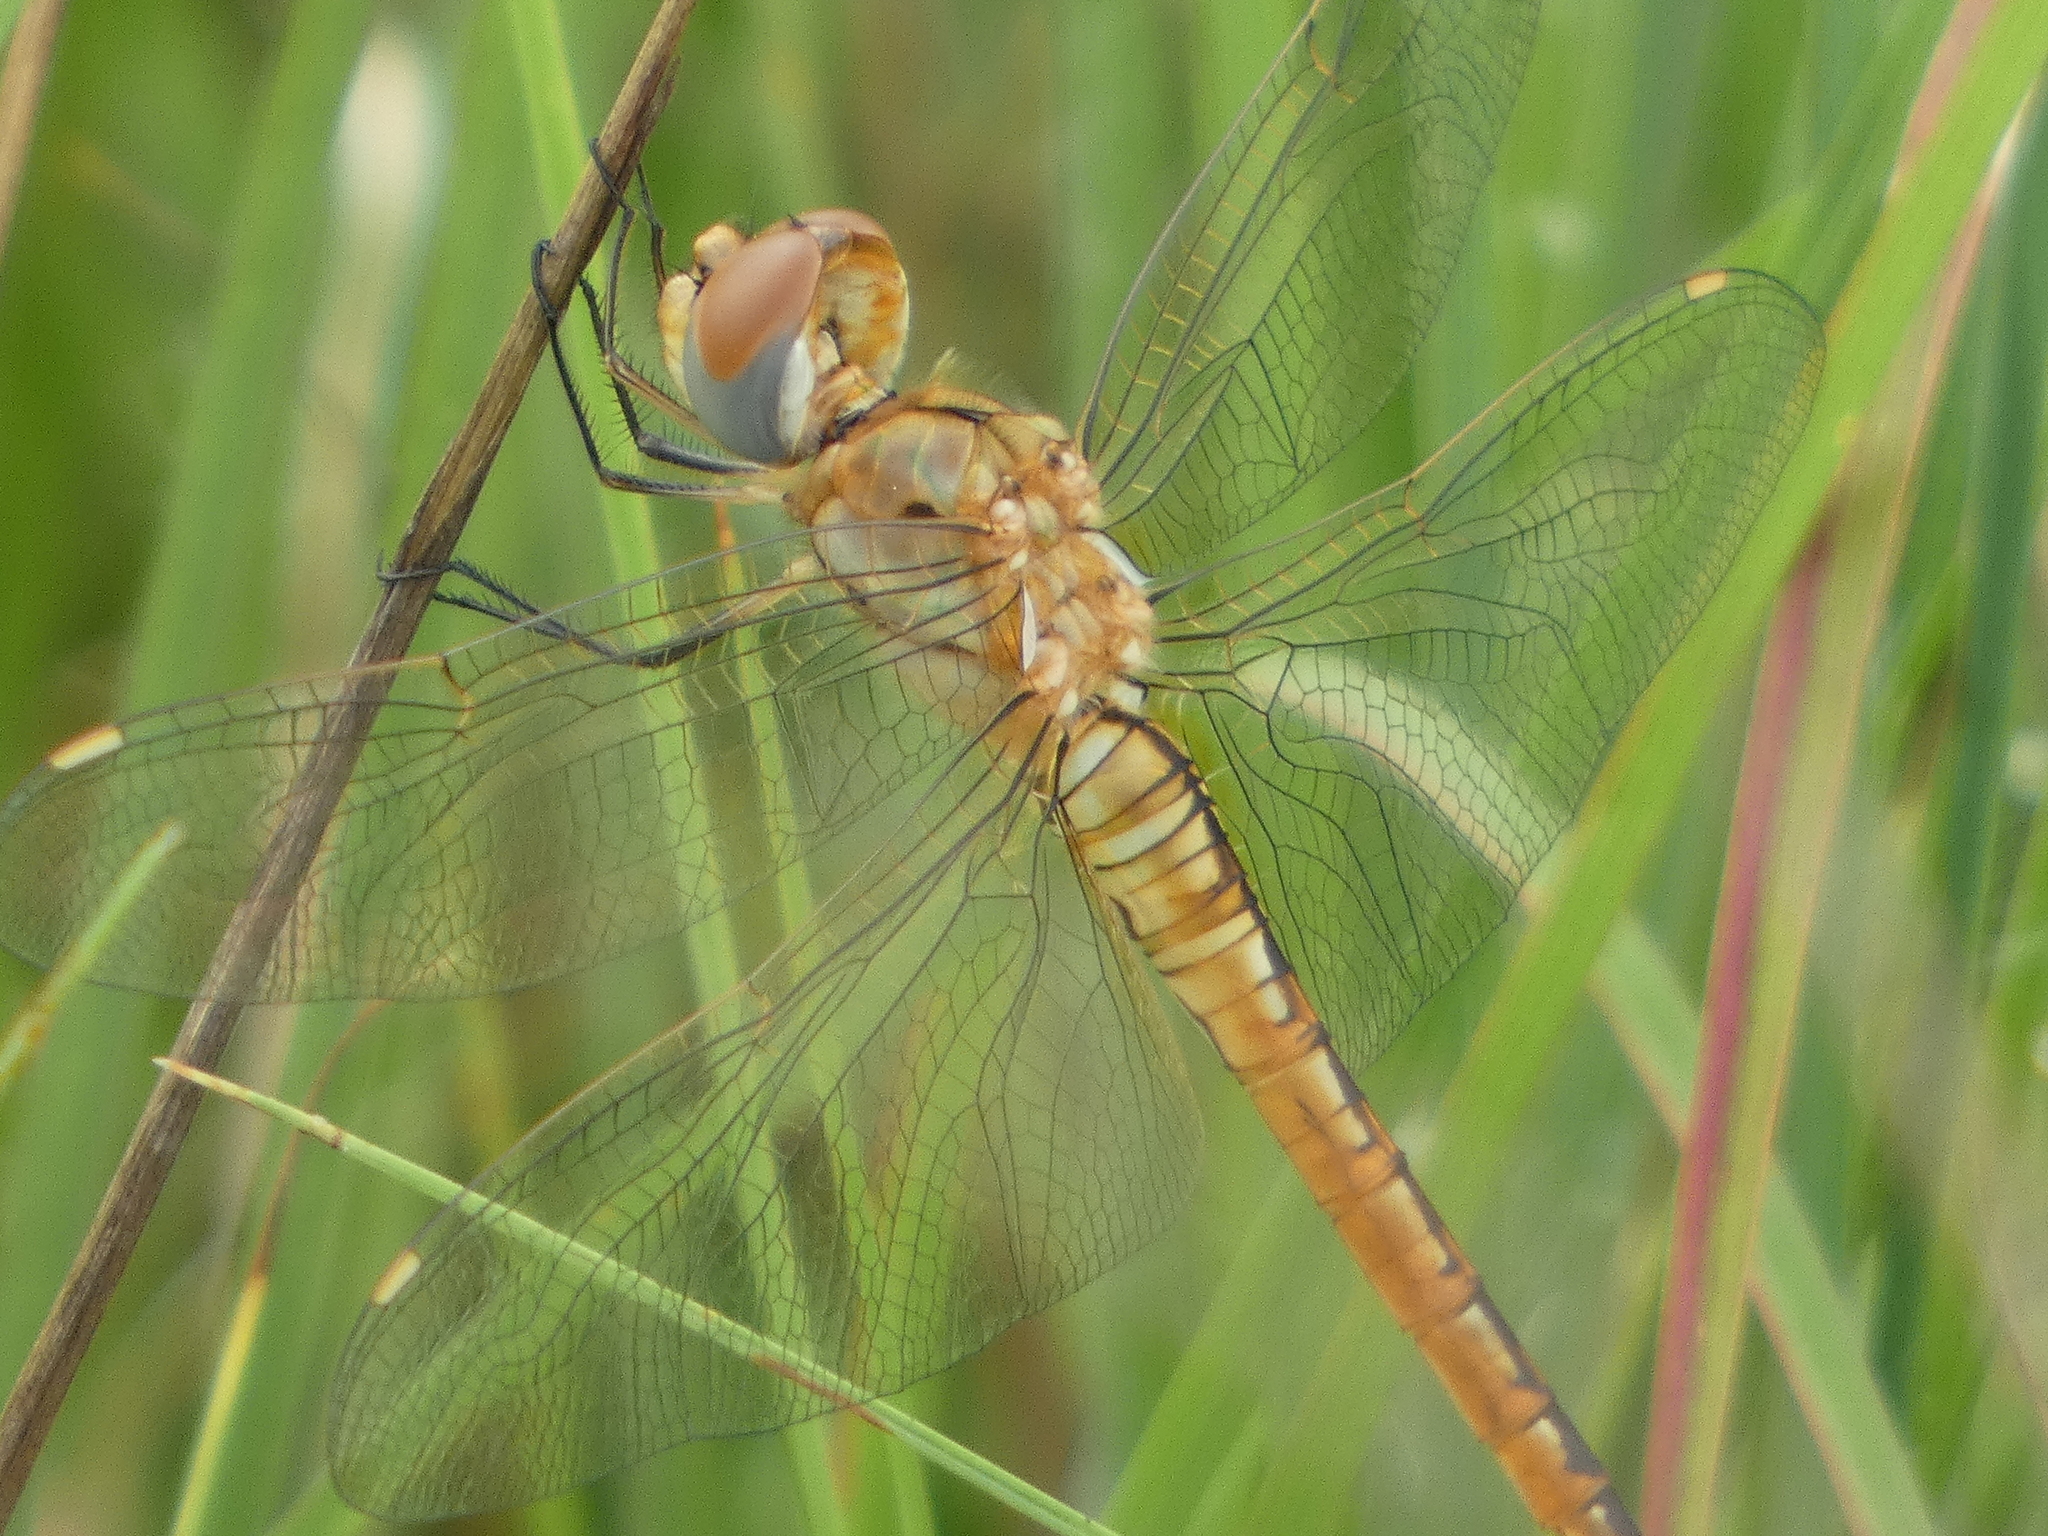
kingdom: Animalia
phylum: Arthropoda
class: Insecta
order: Odonata
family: Libellulidae
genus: Pantala
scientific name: Pantala flavescens
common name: Wandering glider
